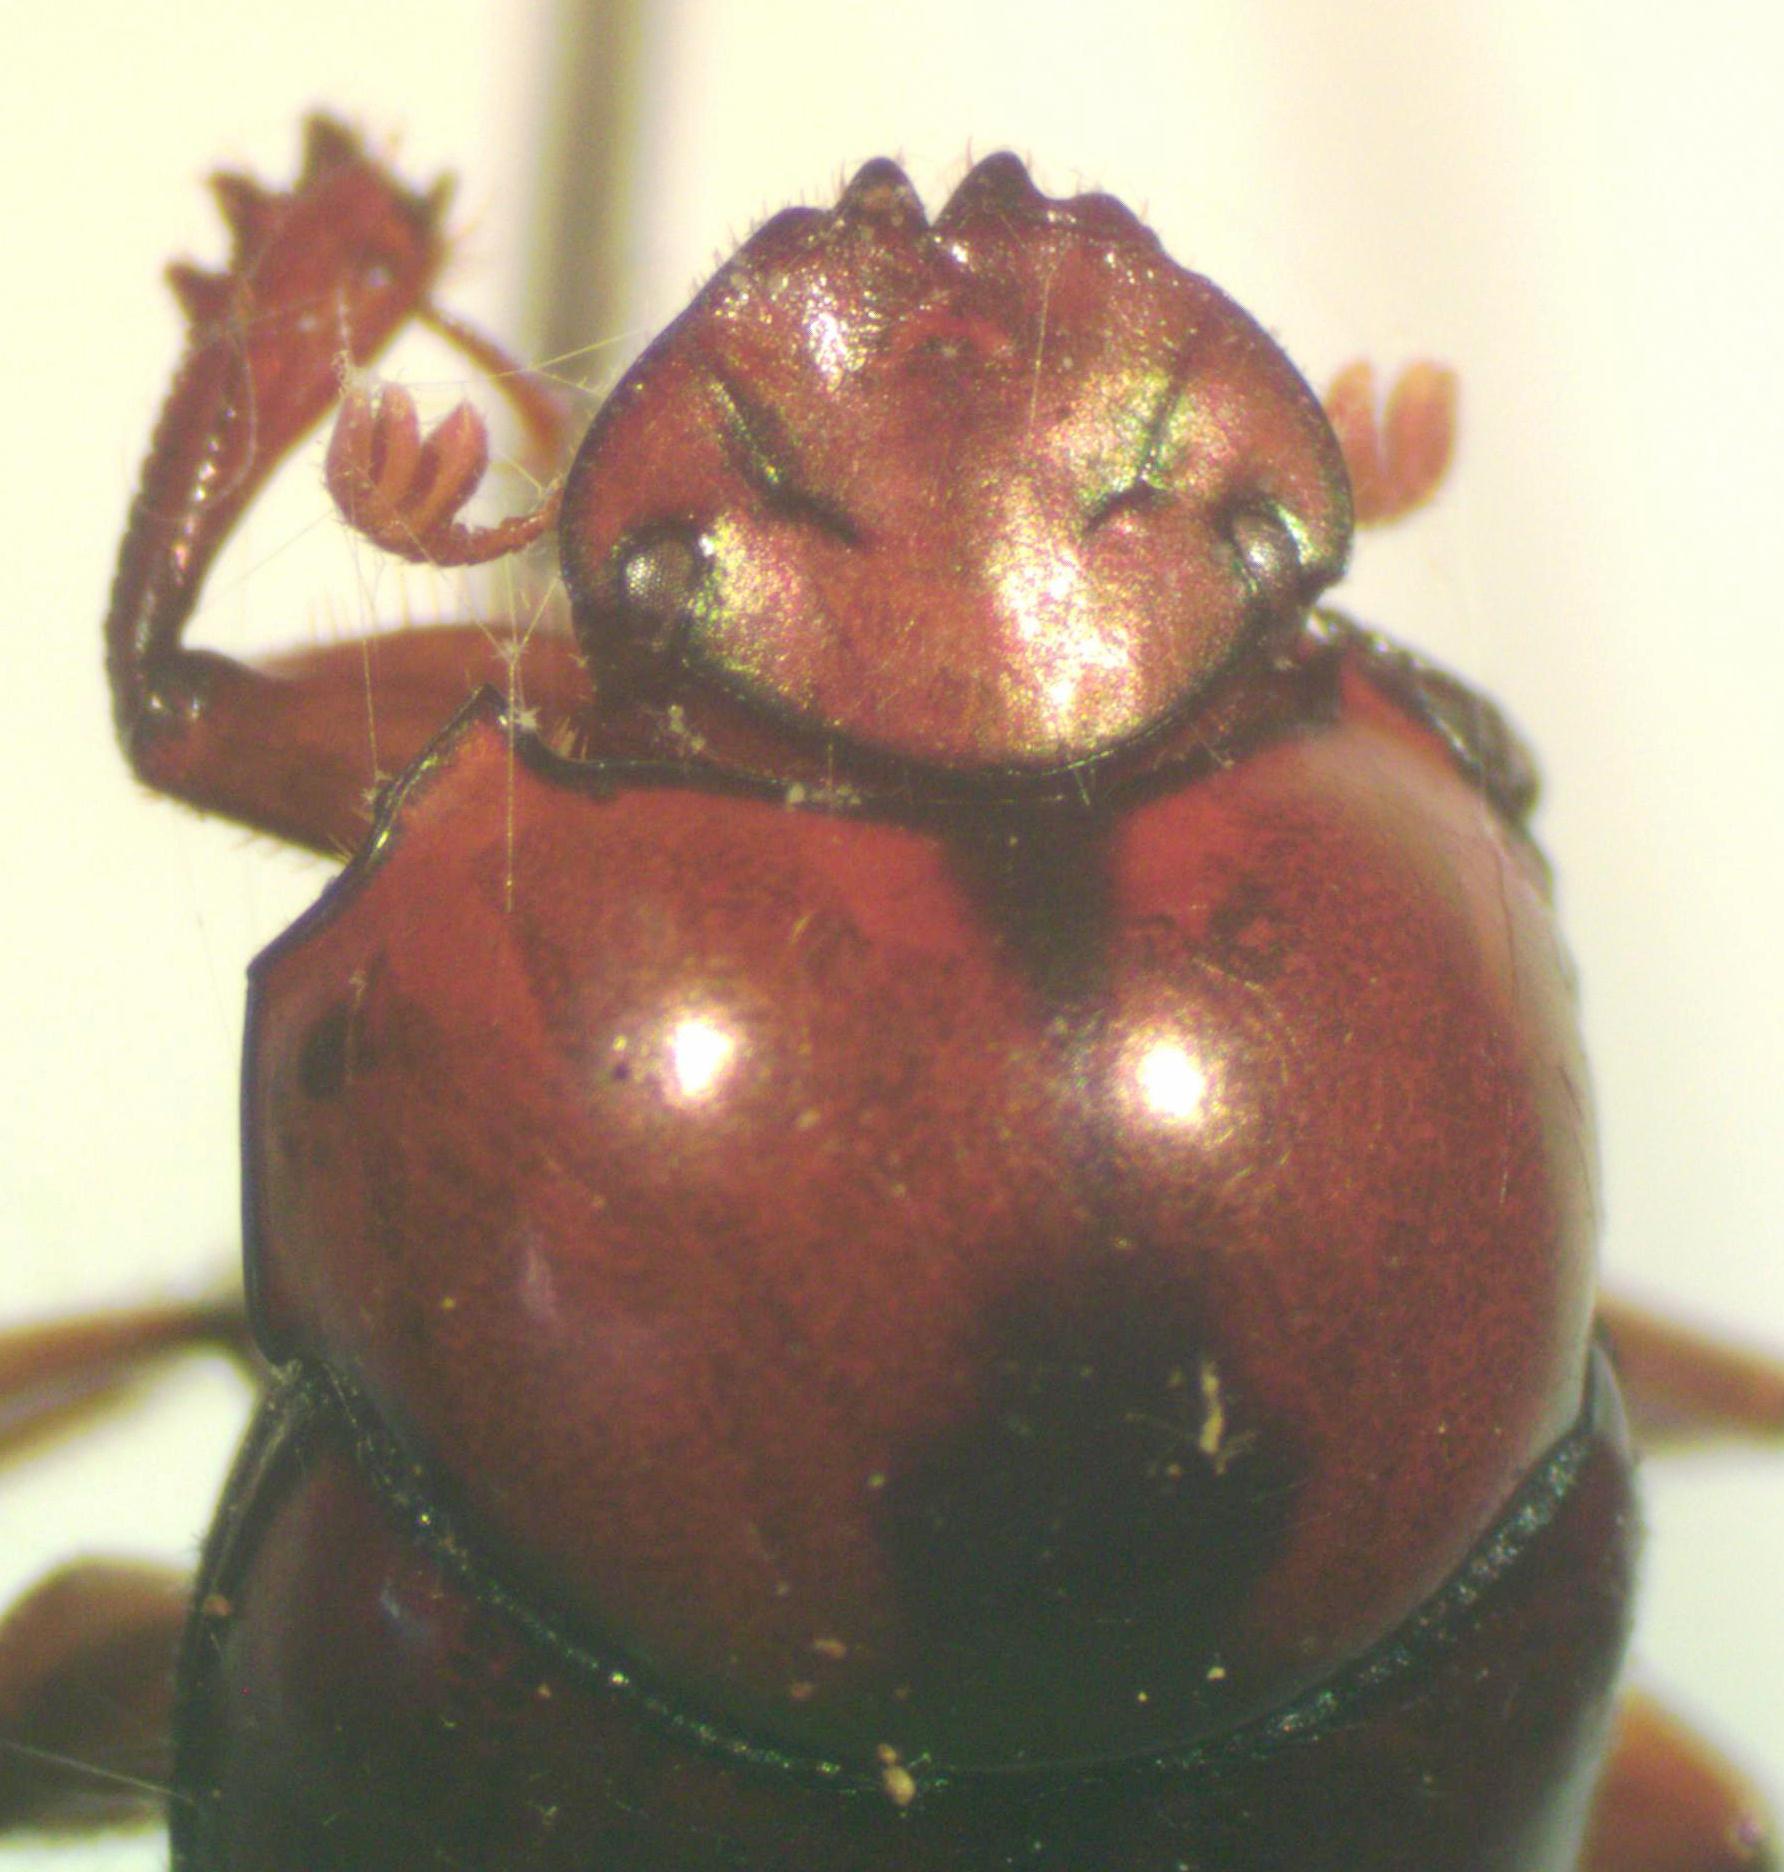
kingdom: Animalia
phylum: Arthropoda
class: Insecta
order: Coleoptera
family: Scarabaeidae
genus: Canthon
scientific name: Canthon angustatus
